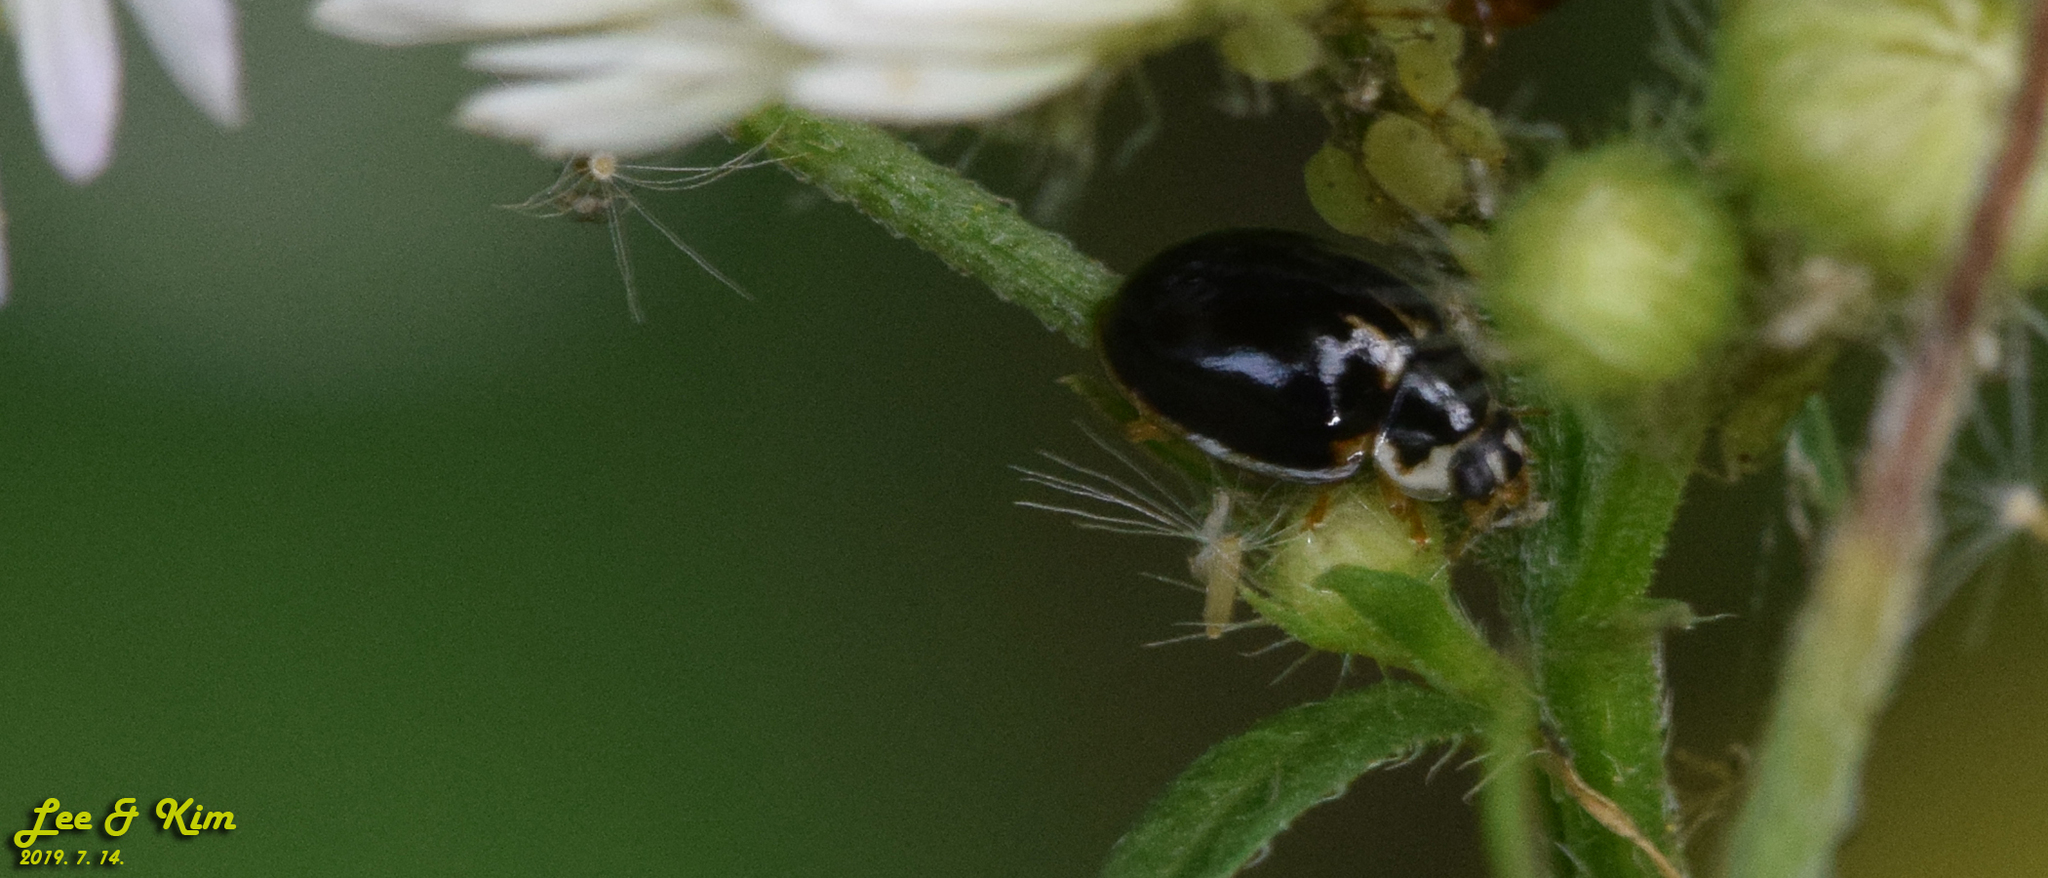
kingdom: Animalia
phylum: Arthropoda
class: Insecta
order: Coleoptera
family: Coccinellidae
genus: Propylea
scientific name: Propylea japonica
